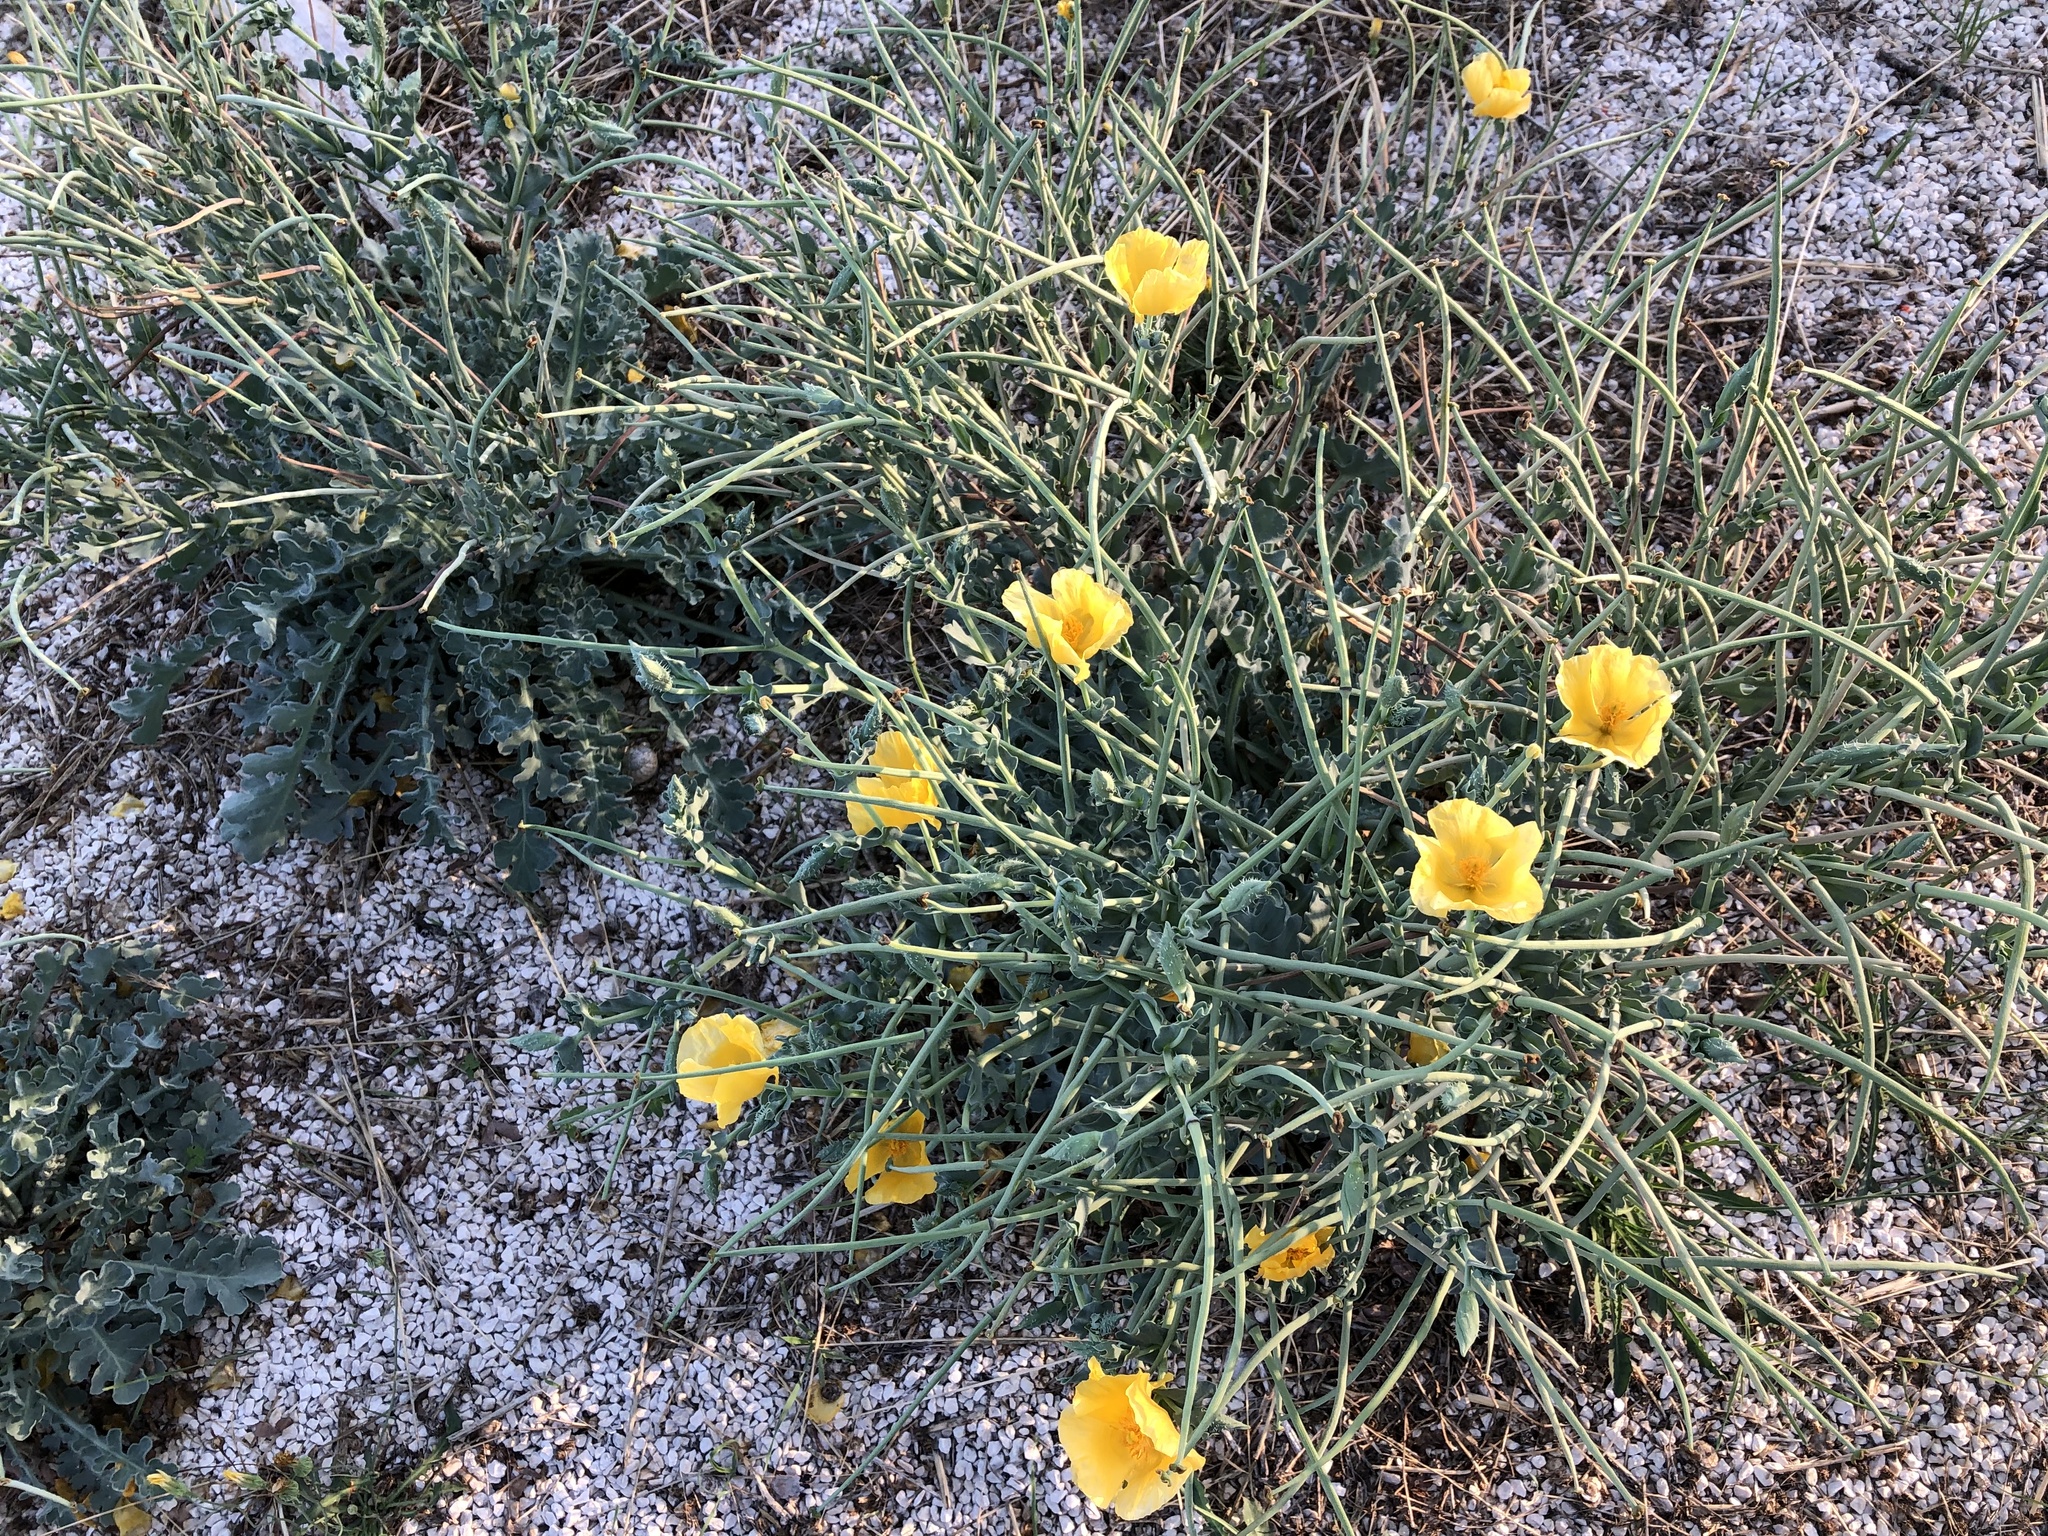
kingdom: Plantae
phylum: Tracheophyta
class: Magnoliopsida
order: Ranunculales
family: Papaveraceae
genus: Glaucium
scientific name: Glaucium flavum
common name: Yellow horned-poppy
